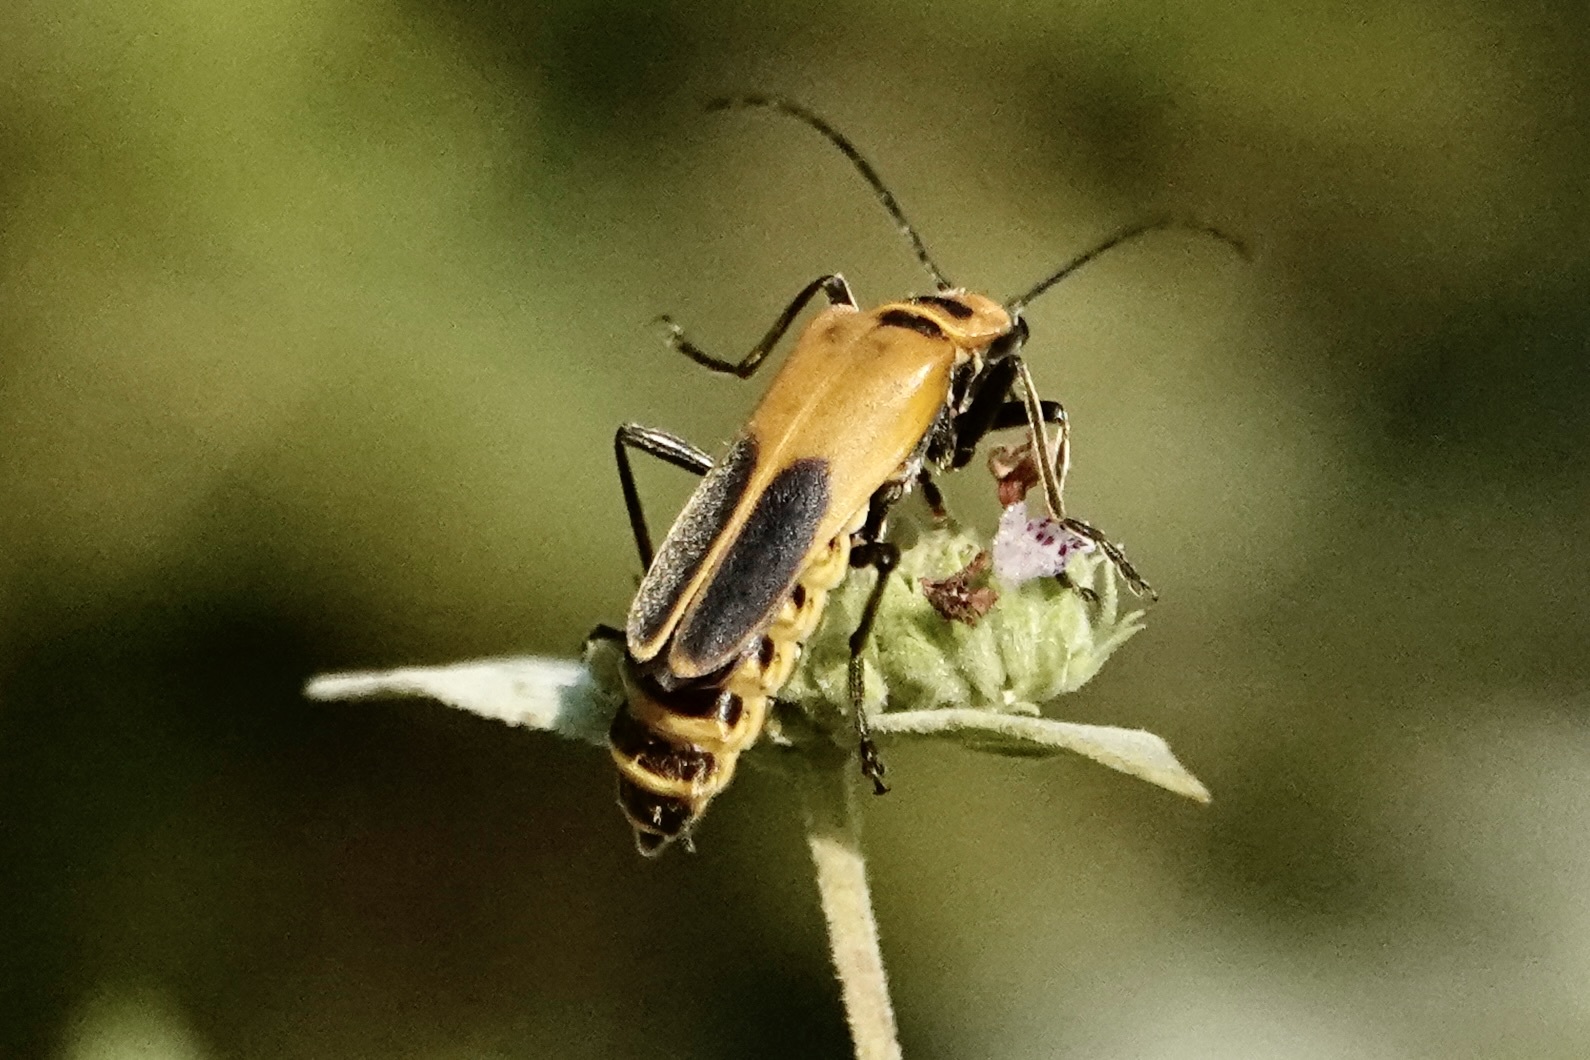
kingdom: Animalia
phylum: Arthropoda
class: Insecta
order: Coleoptera
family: Cantharidae
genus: Chauliognathus
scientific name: Chauliognathus pensylvanicus
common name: Goldenrod soldier beetle
